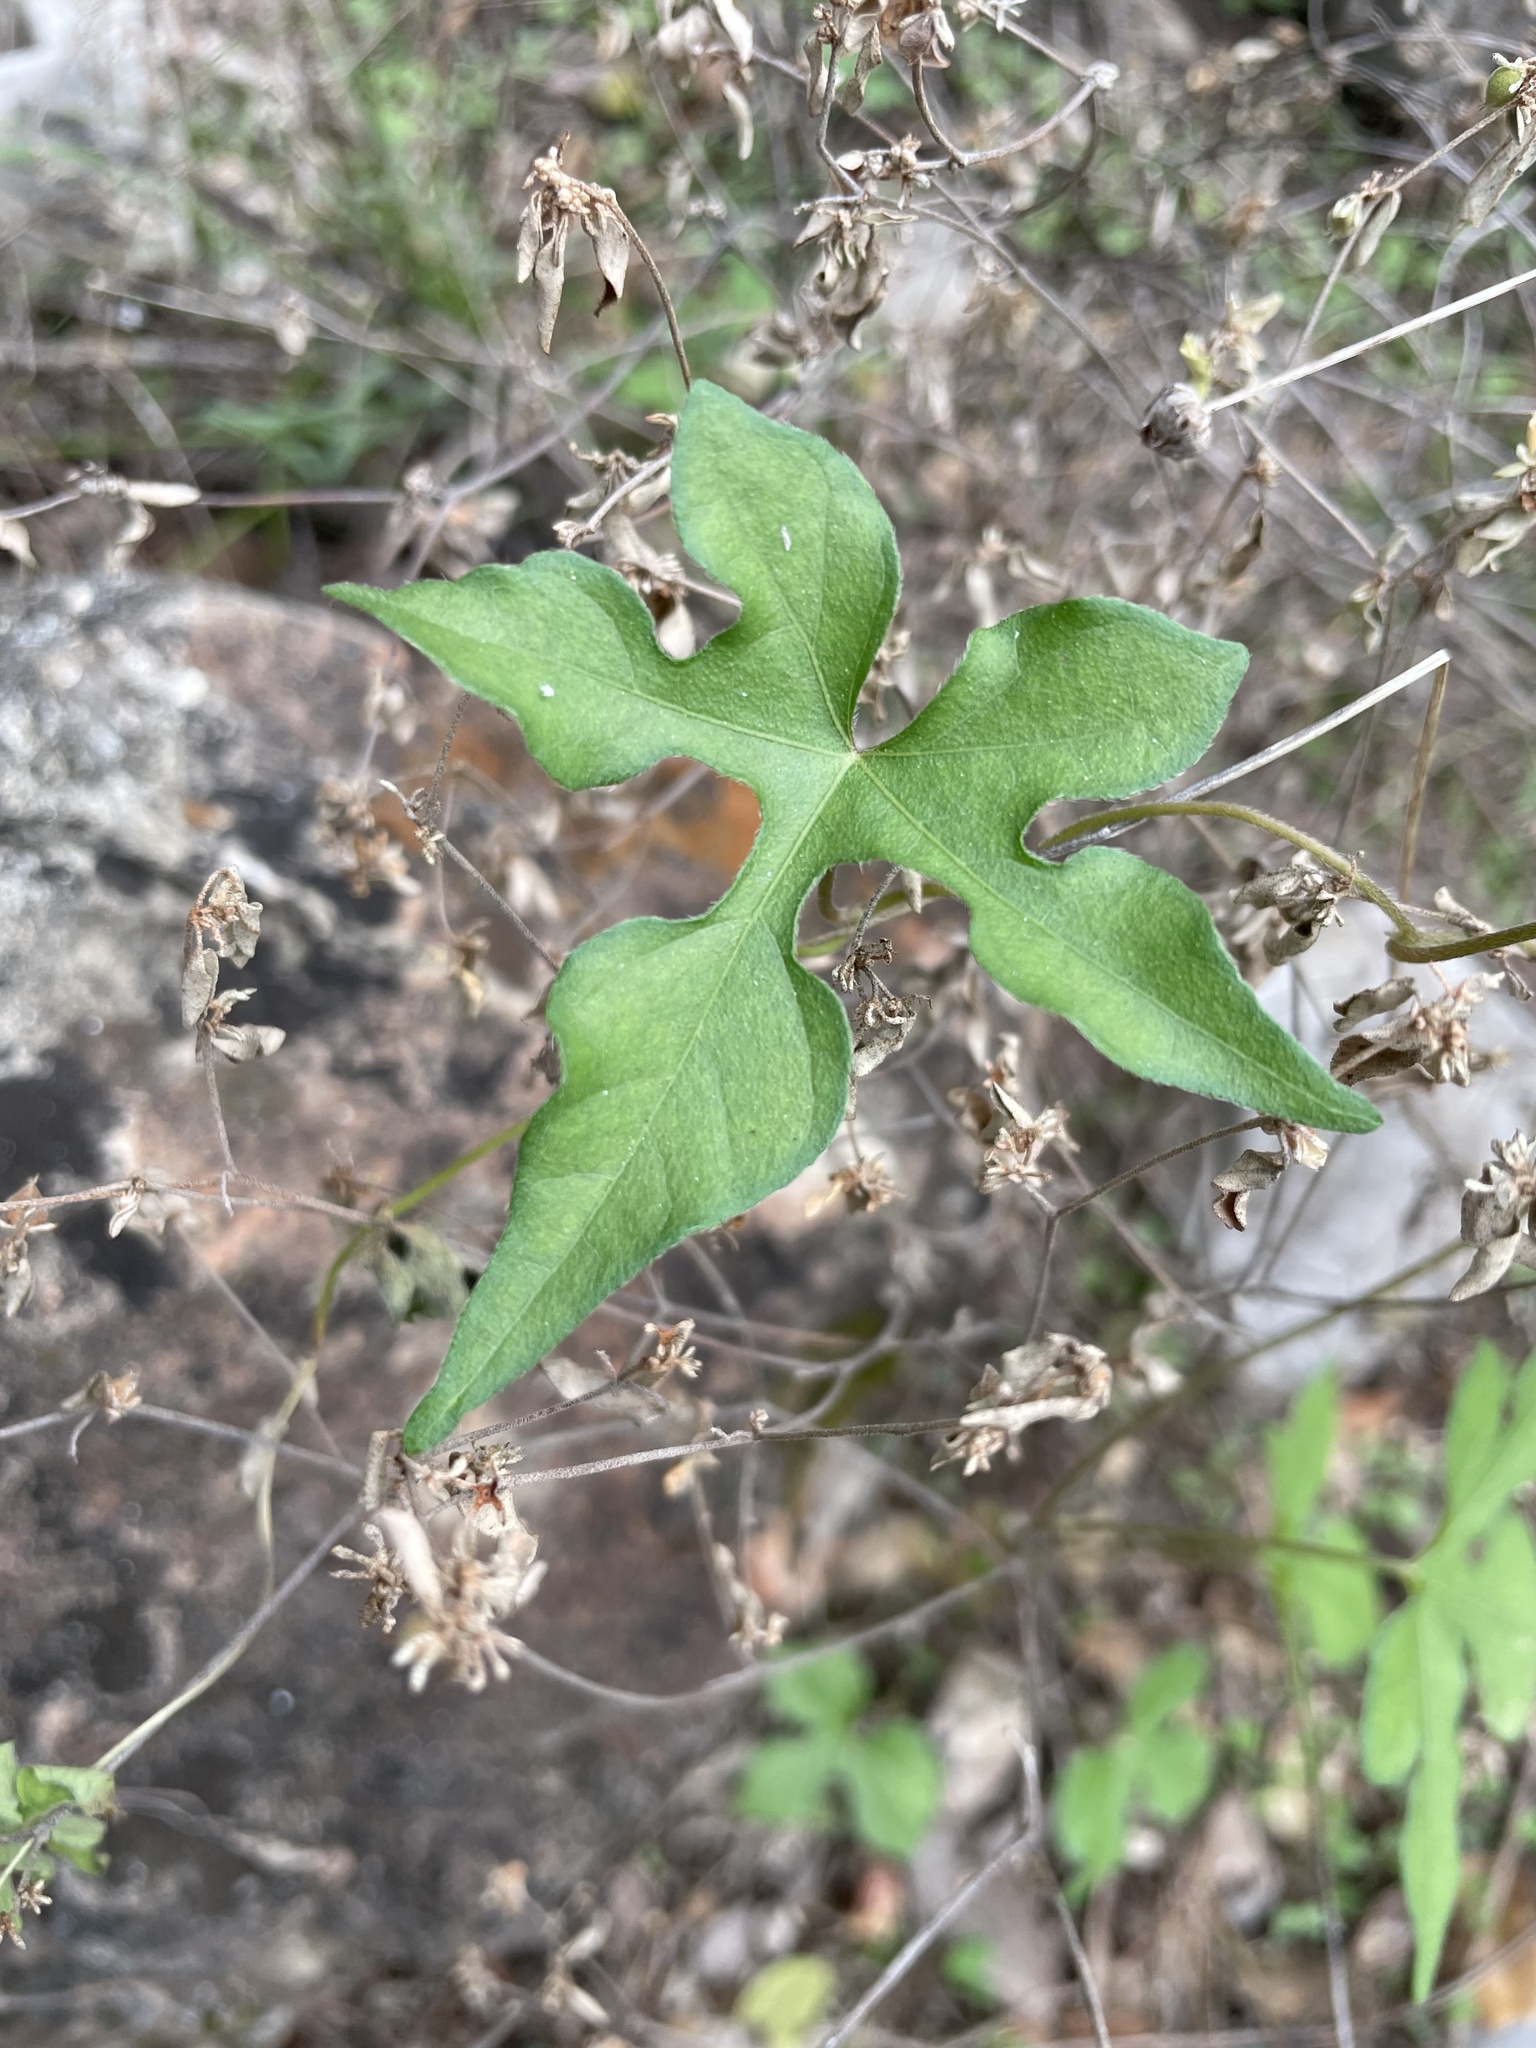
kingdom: Plantae
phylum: Tracheophyta
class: Magnoliopsida
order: Solanales
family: Convolvulaceae
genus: Ipomoea
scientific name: Ipomoea lindheimeri
